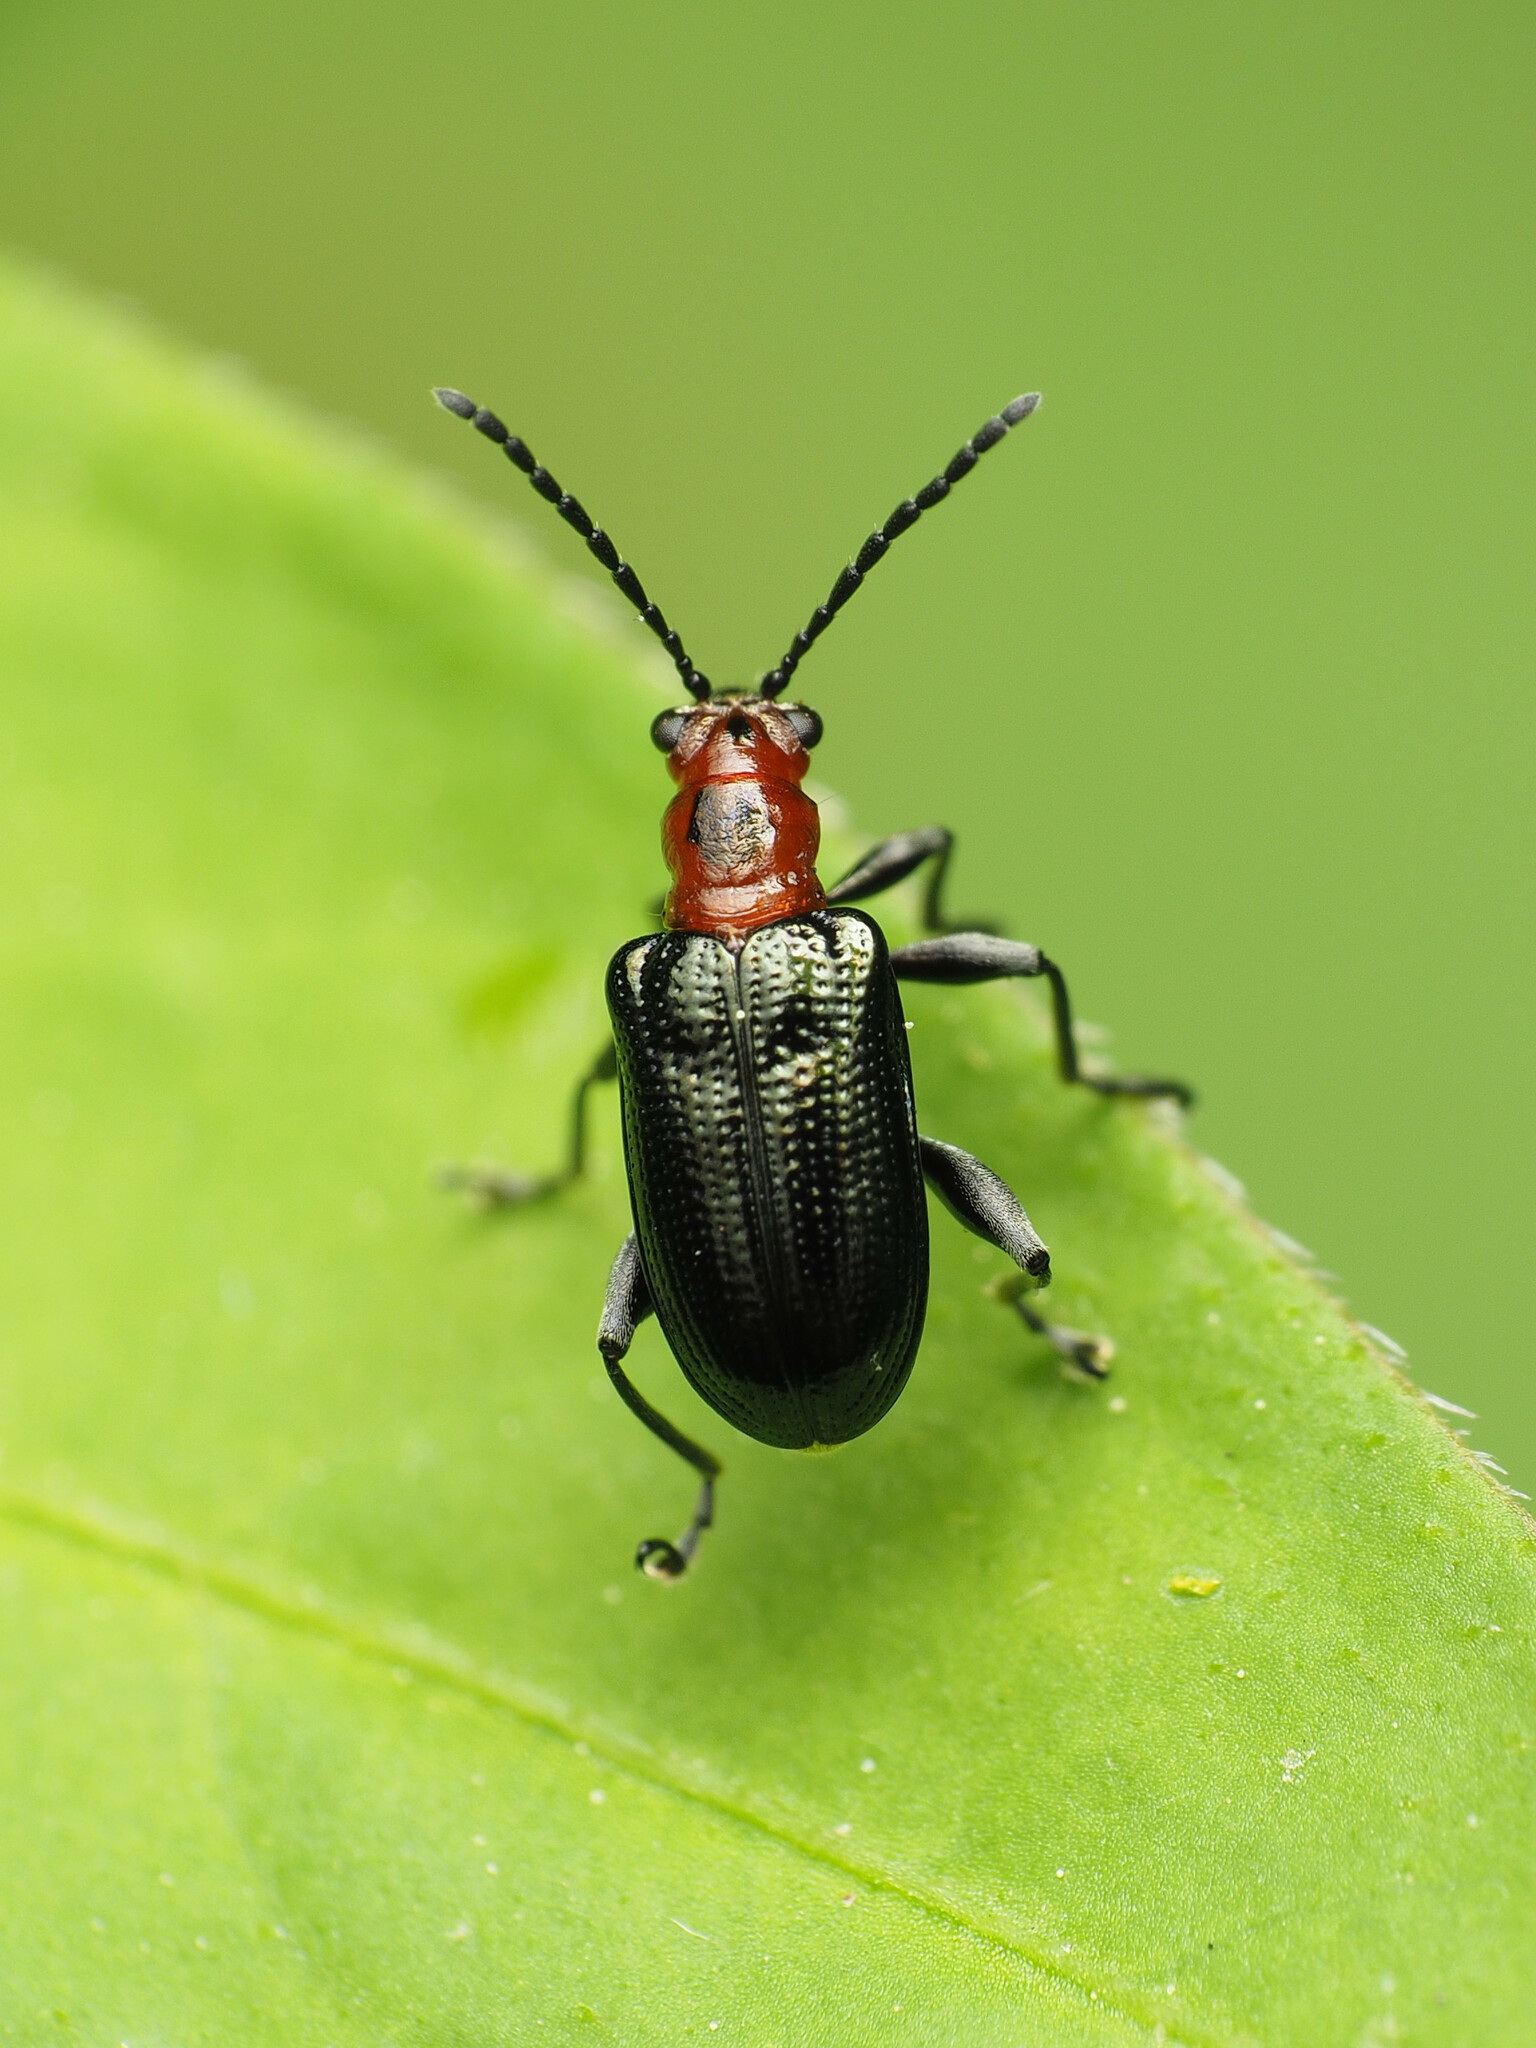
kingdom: Animalia
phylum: Arthropoda
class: Insecta
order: Coleoptera
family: Chrysomelidae
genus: Oulema
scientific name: Oulema sayi
